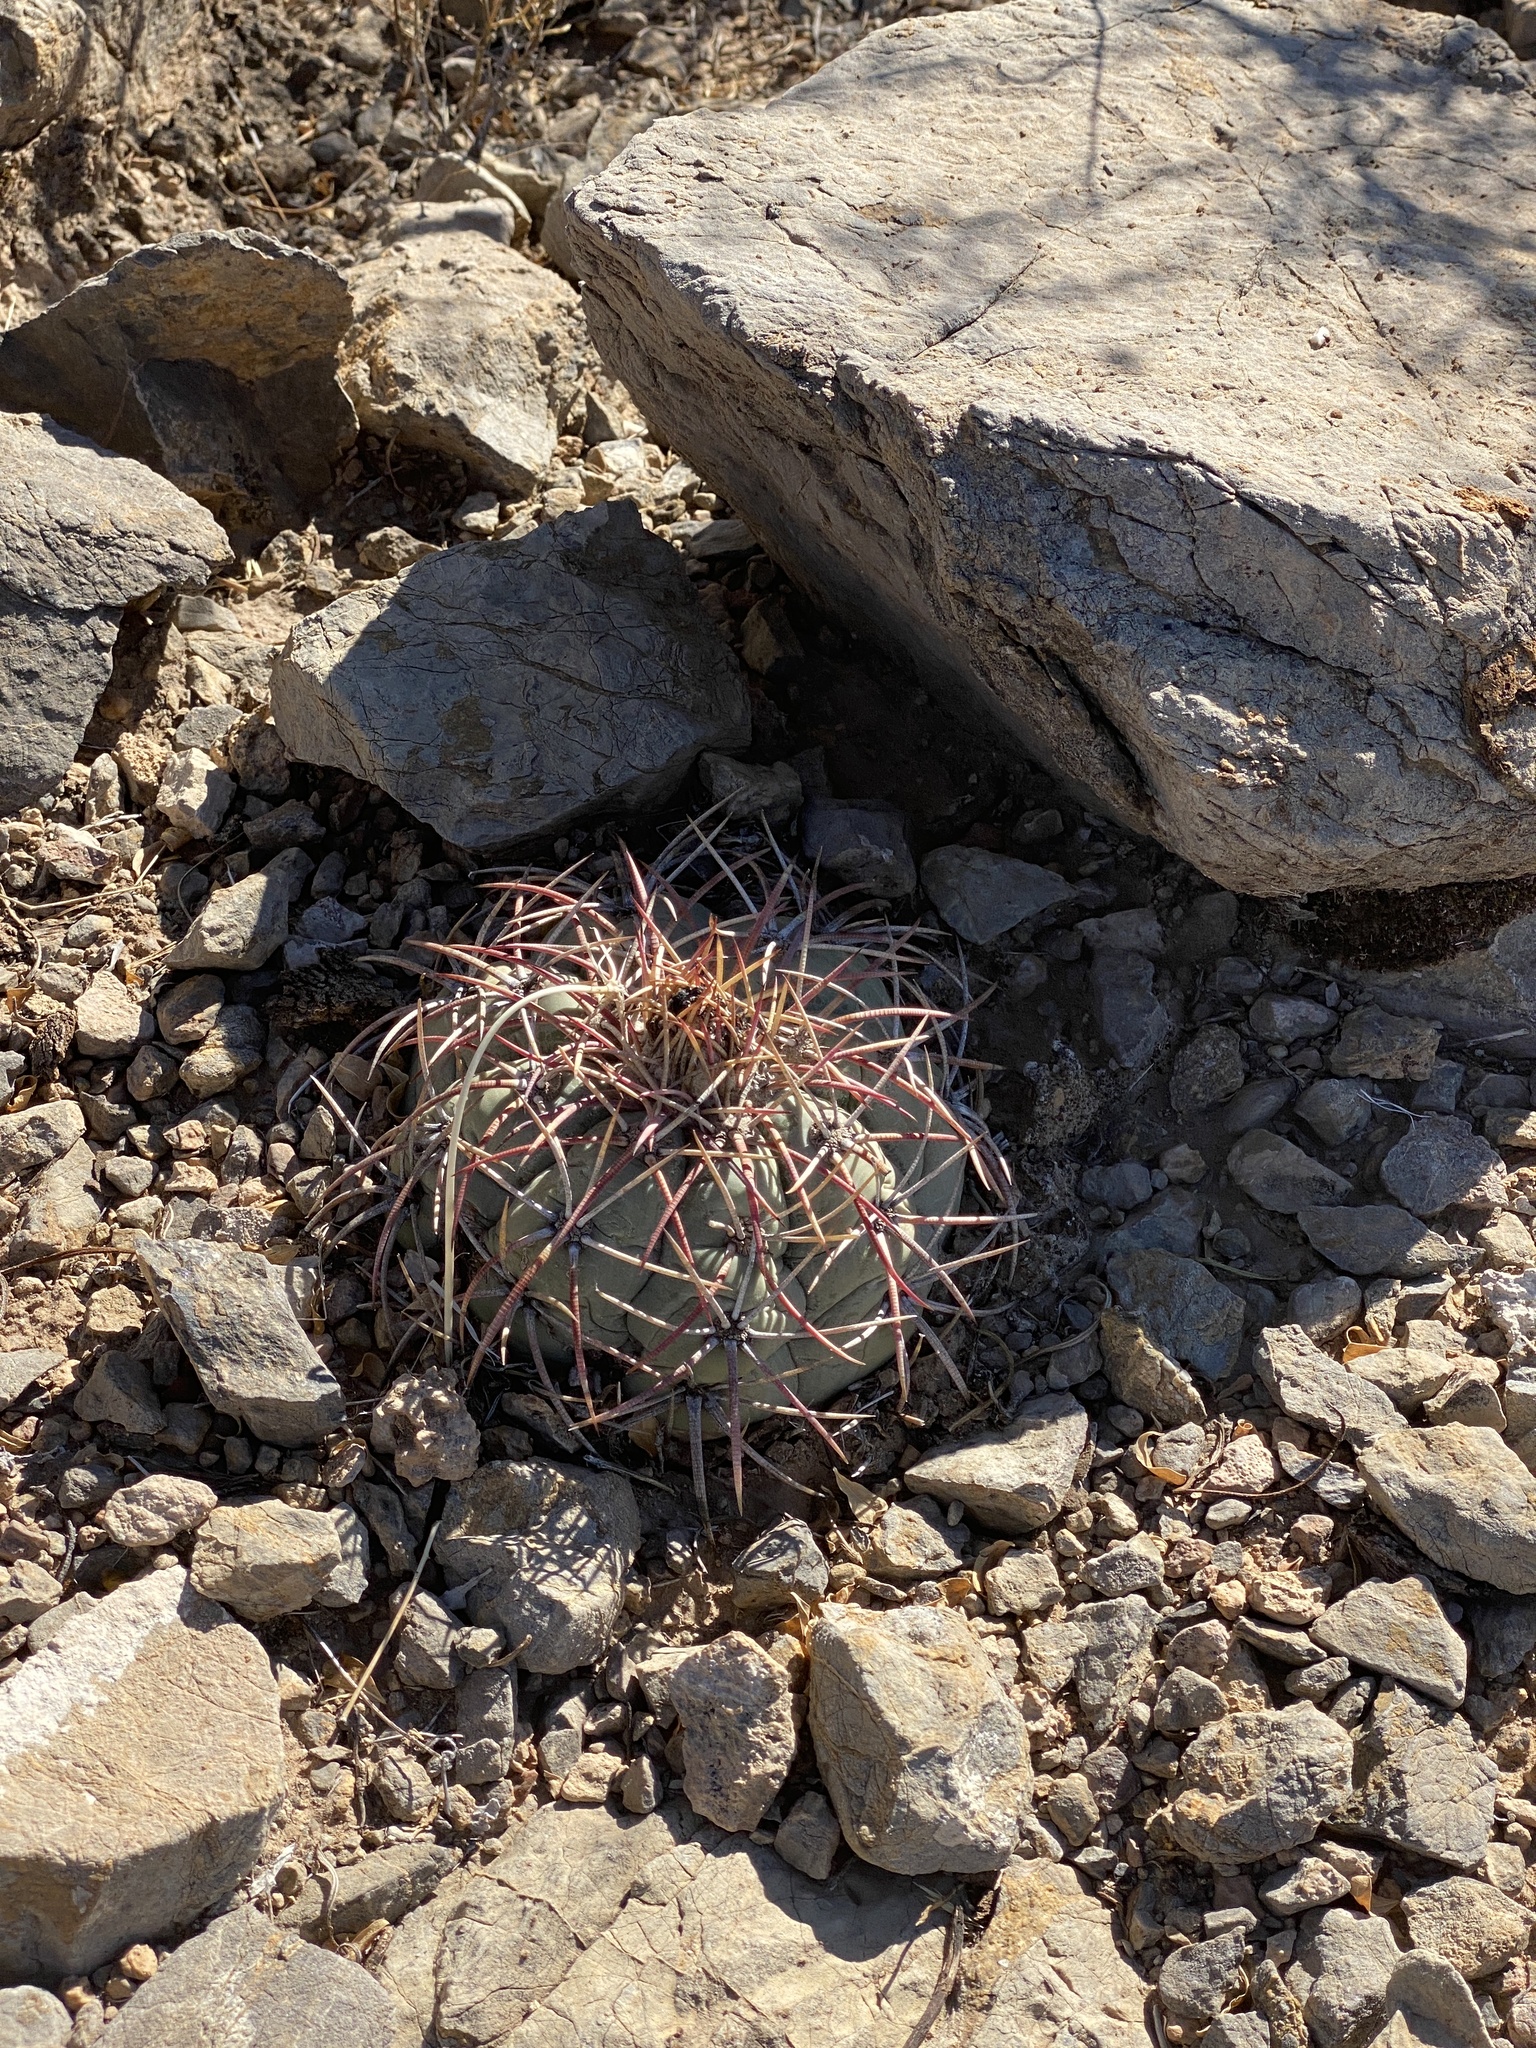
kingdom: Plantae
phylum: Tracheophyta
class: Magnoliopsida
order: Caryophyllales
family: Cactaceae
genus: Echinocactus
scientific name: Echinocactus horizonthalonius
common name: Devilshead
